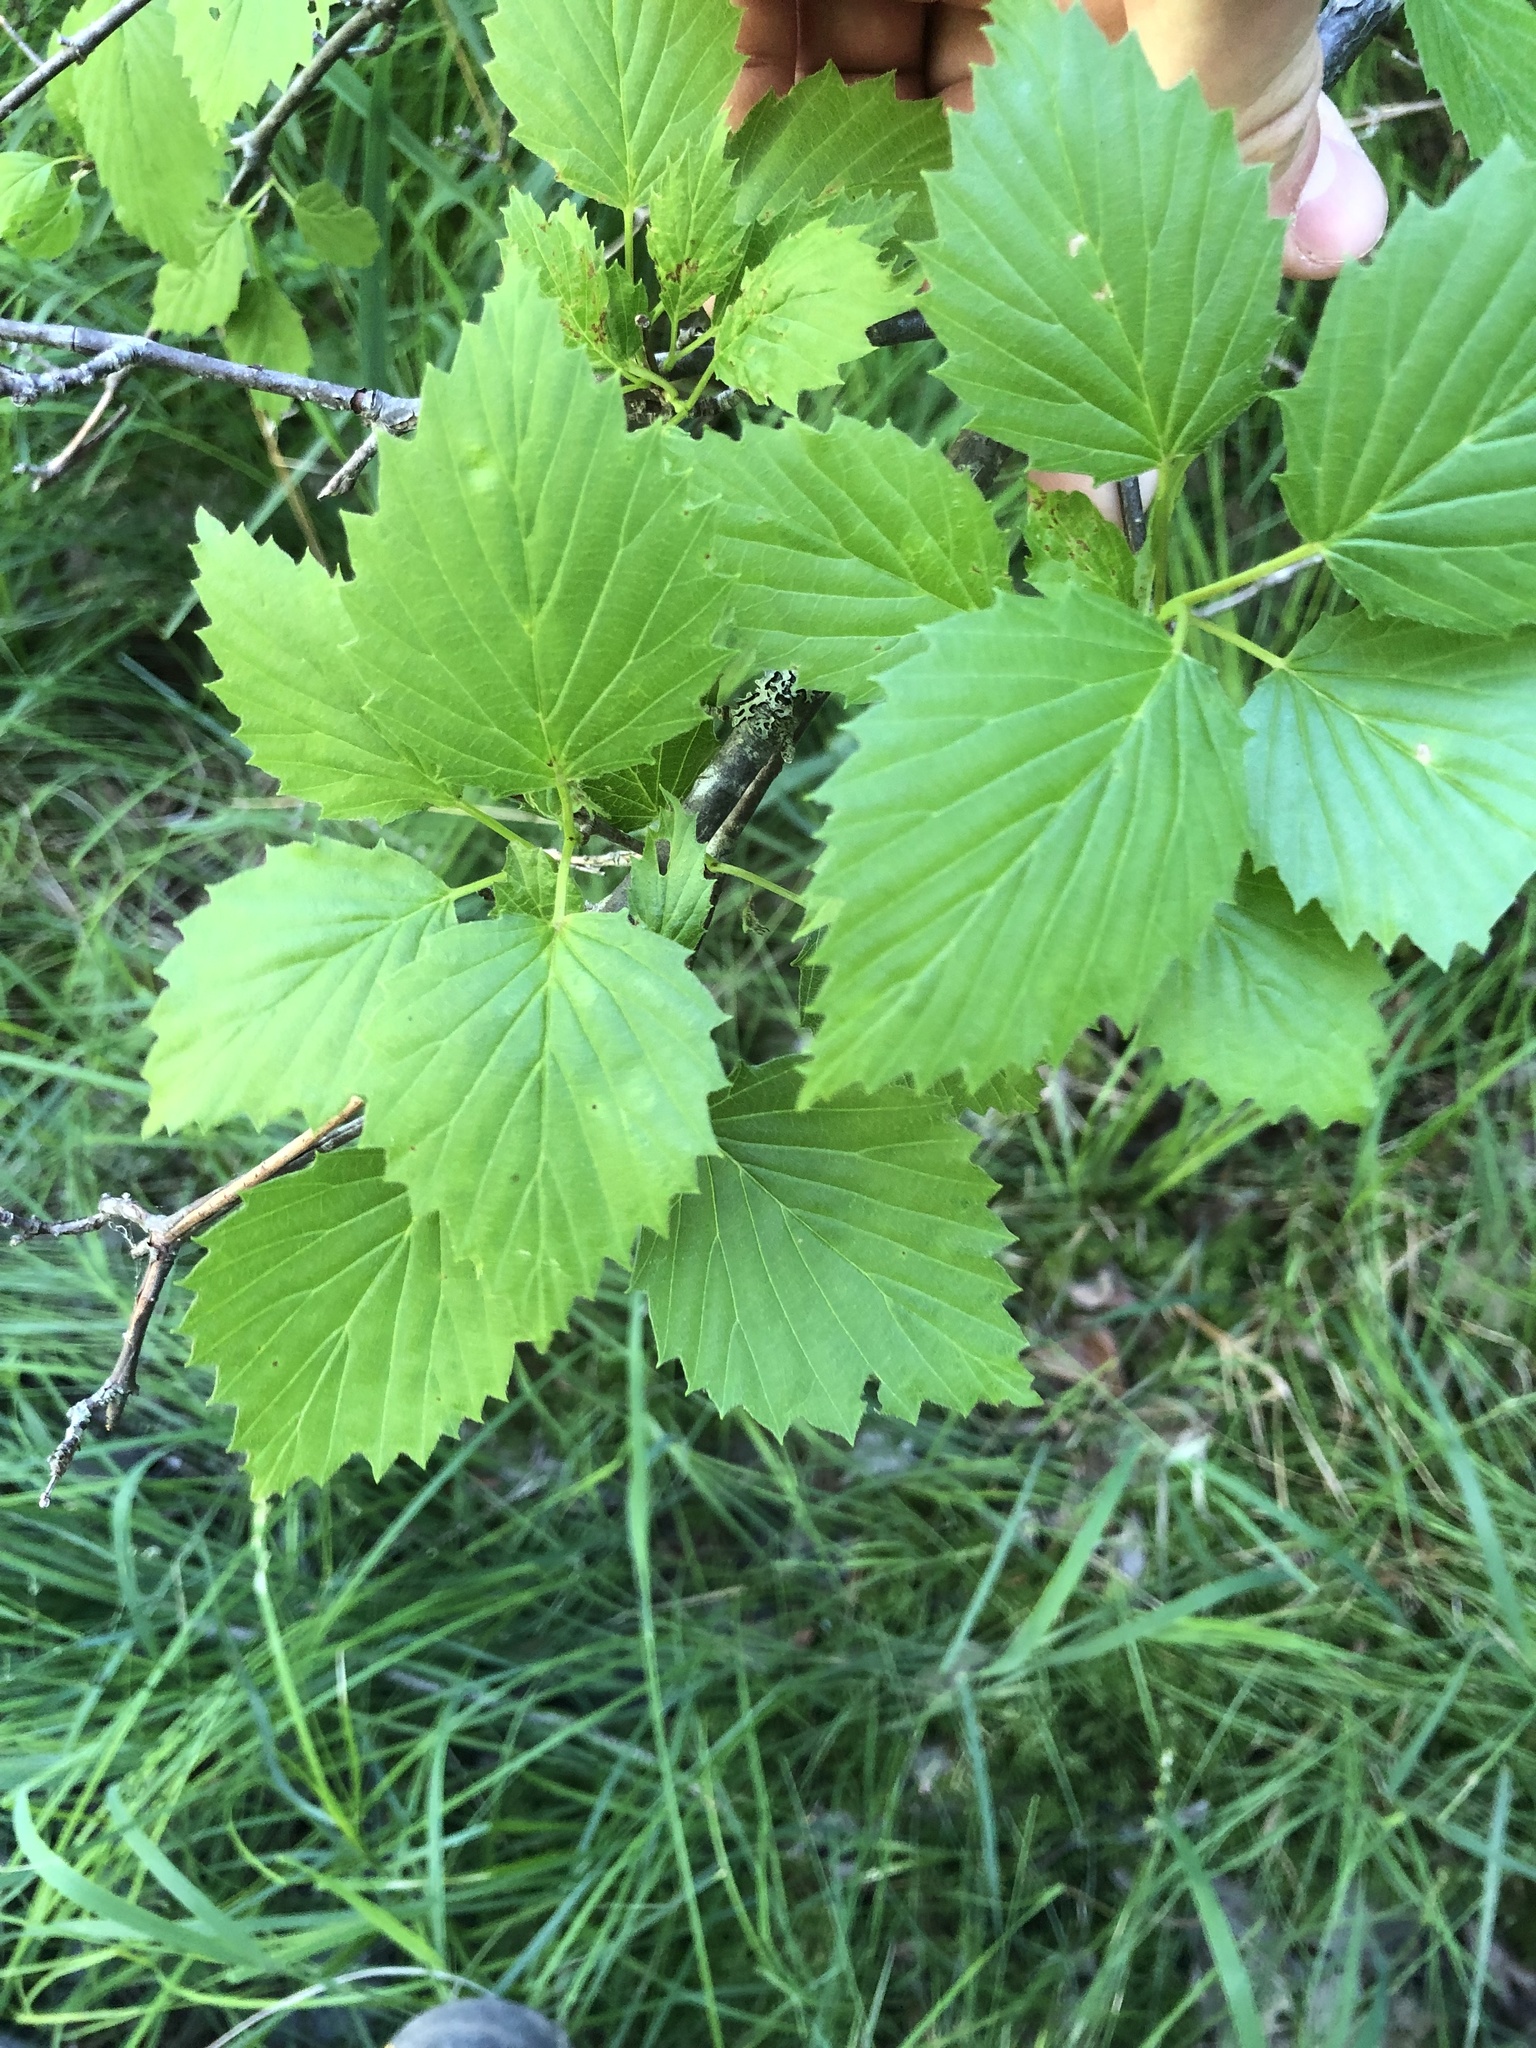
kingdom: Plantae
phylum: Tracheophyta
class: Magnoliopsida
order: Dipsacales
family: Viburnaceae
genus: Viburnum
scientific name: Viburnum recognitum
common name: Northern arrow-wood
